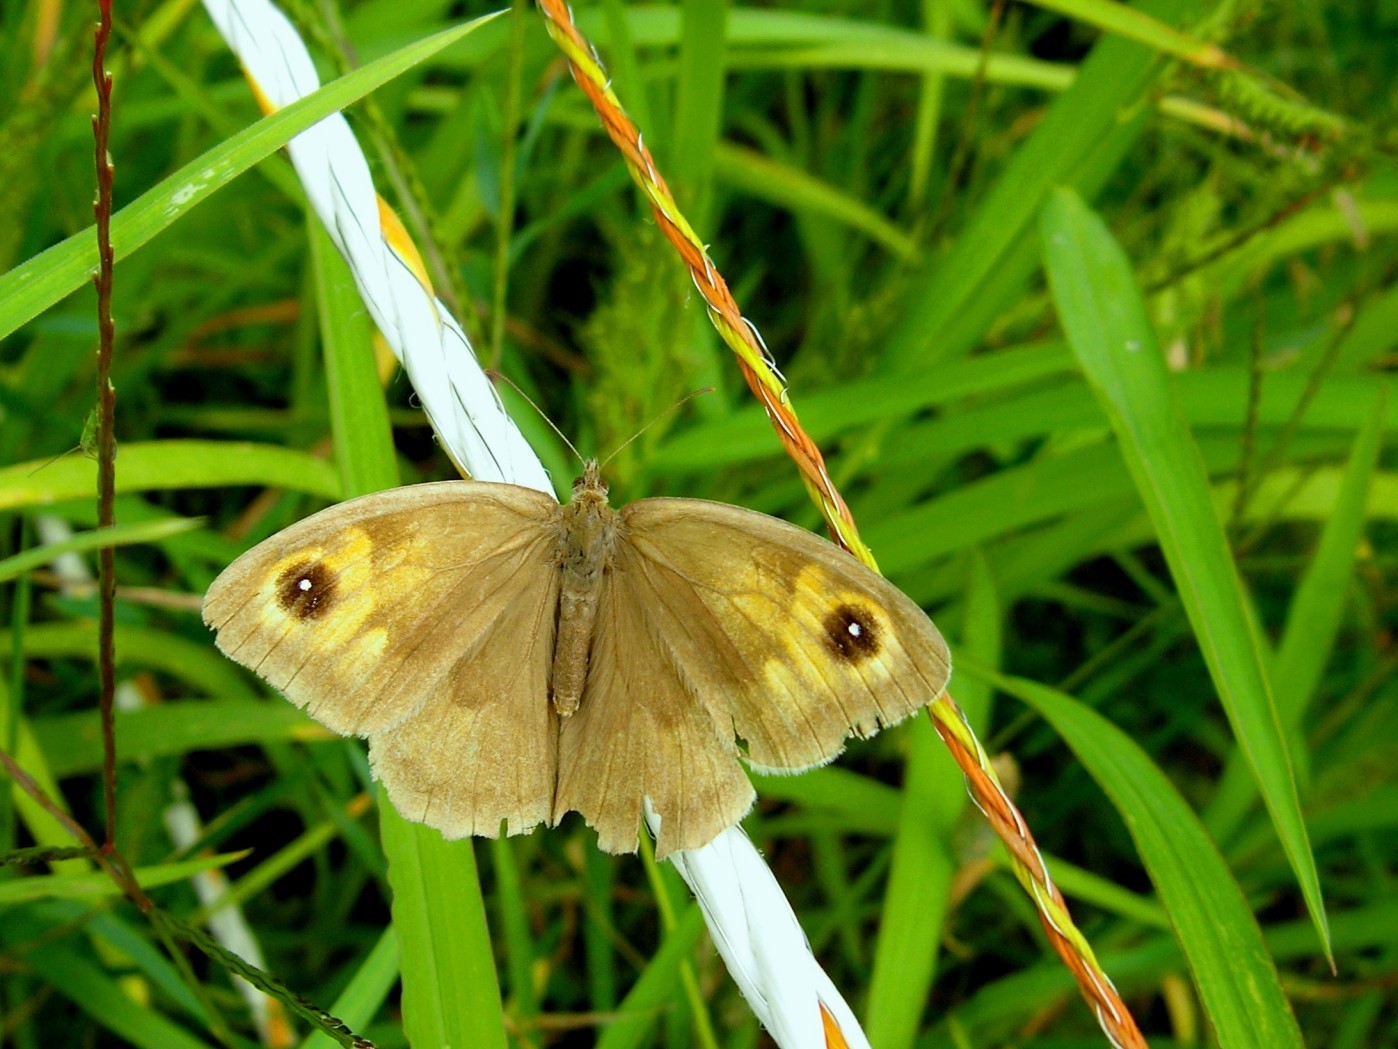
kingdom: Animalia
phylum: Arthropoda
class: Insecta
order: Lepidoptera
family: Nymphalidae
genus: Maniola
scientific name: Maniola jurtina
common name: Meadow brown
